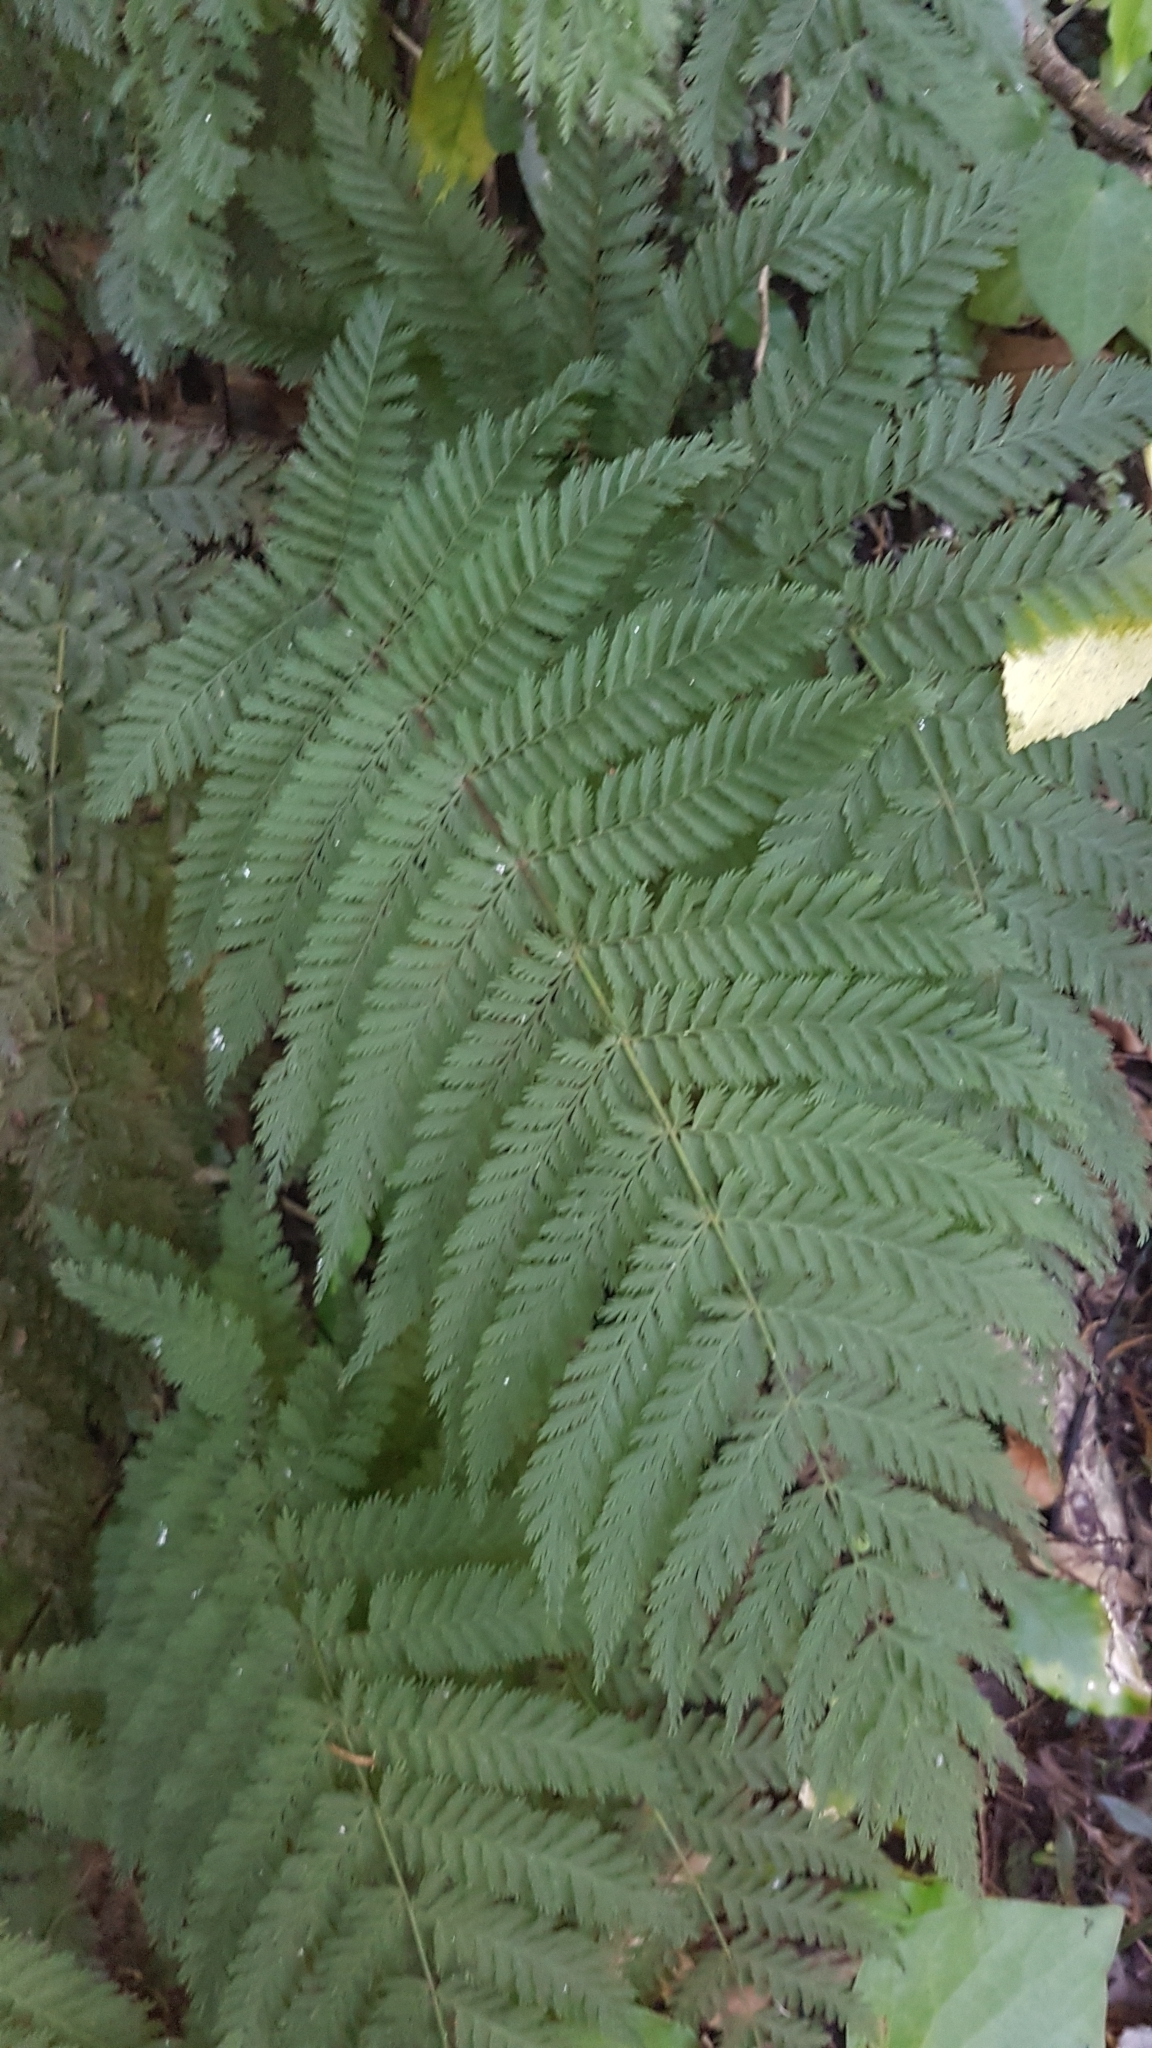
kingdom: Plantae
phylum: Tracheophyta
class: Polypodiopsida
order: Osmundales
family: Osmundaceae
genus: Leptopteris
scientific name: Leptopteris hymenophylloides
